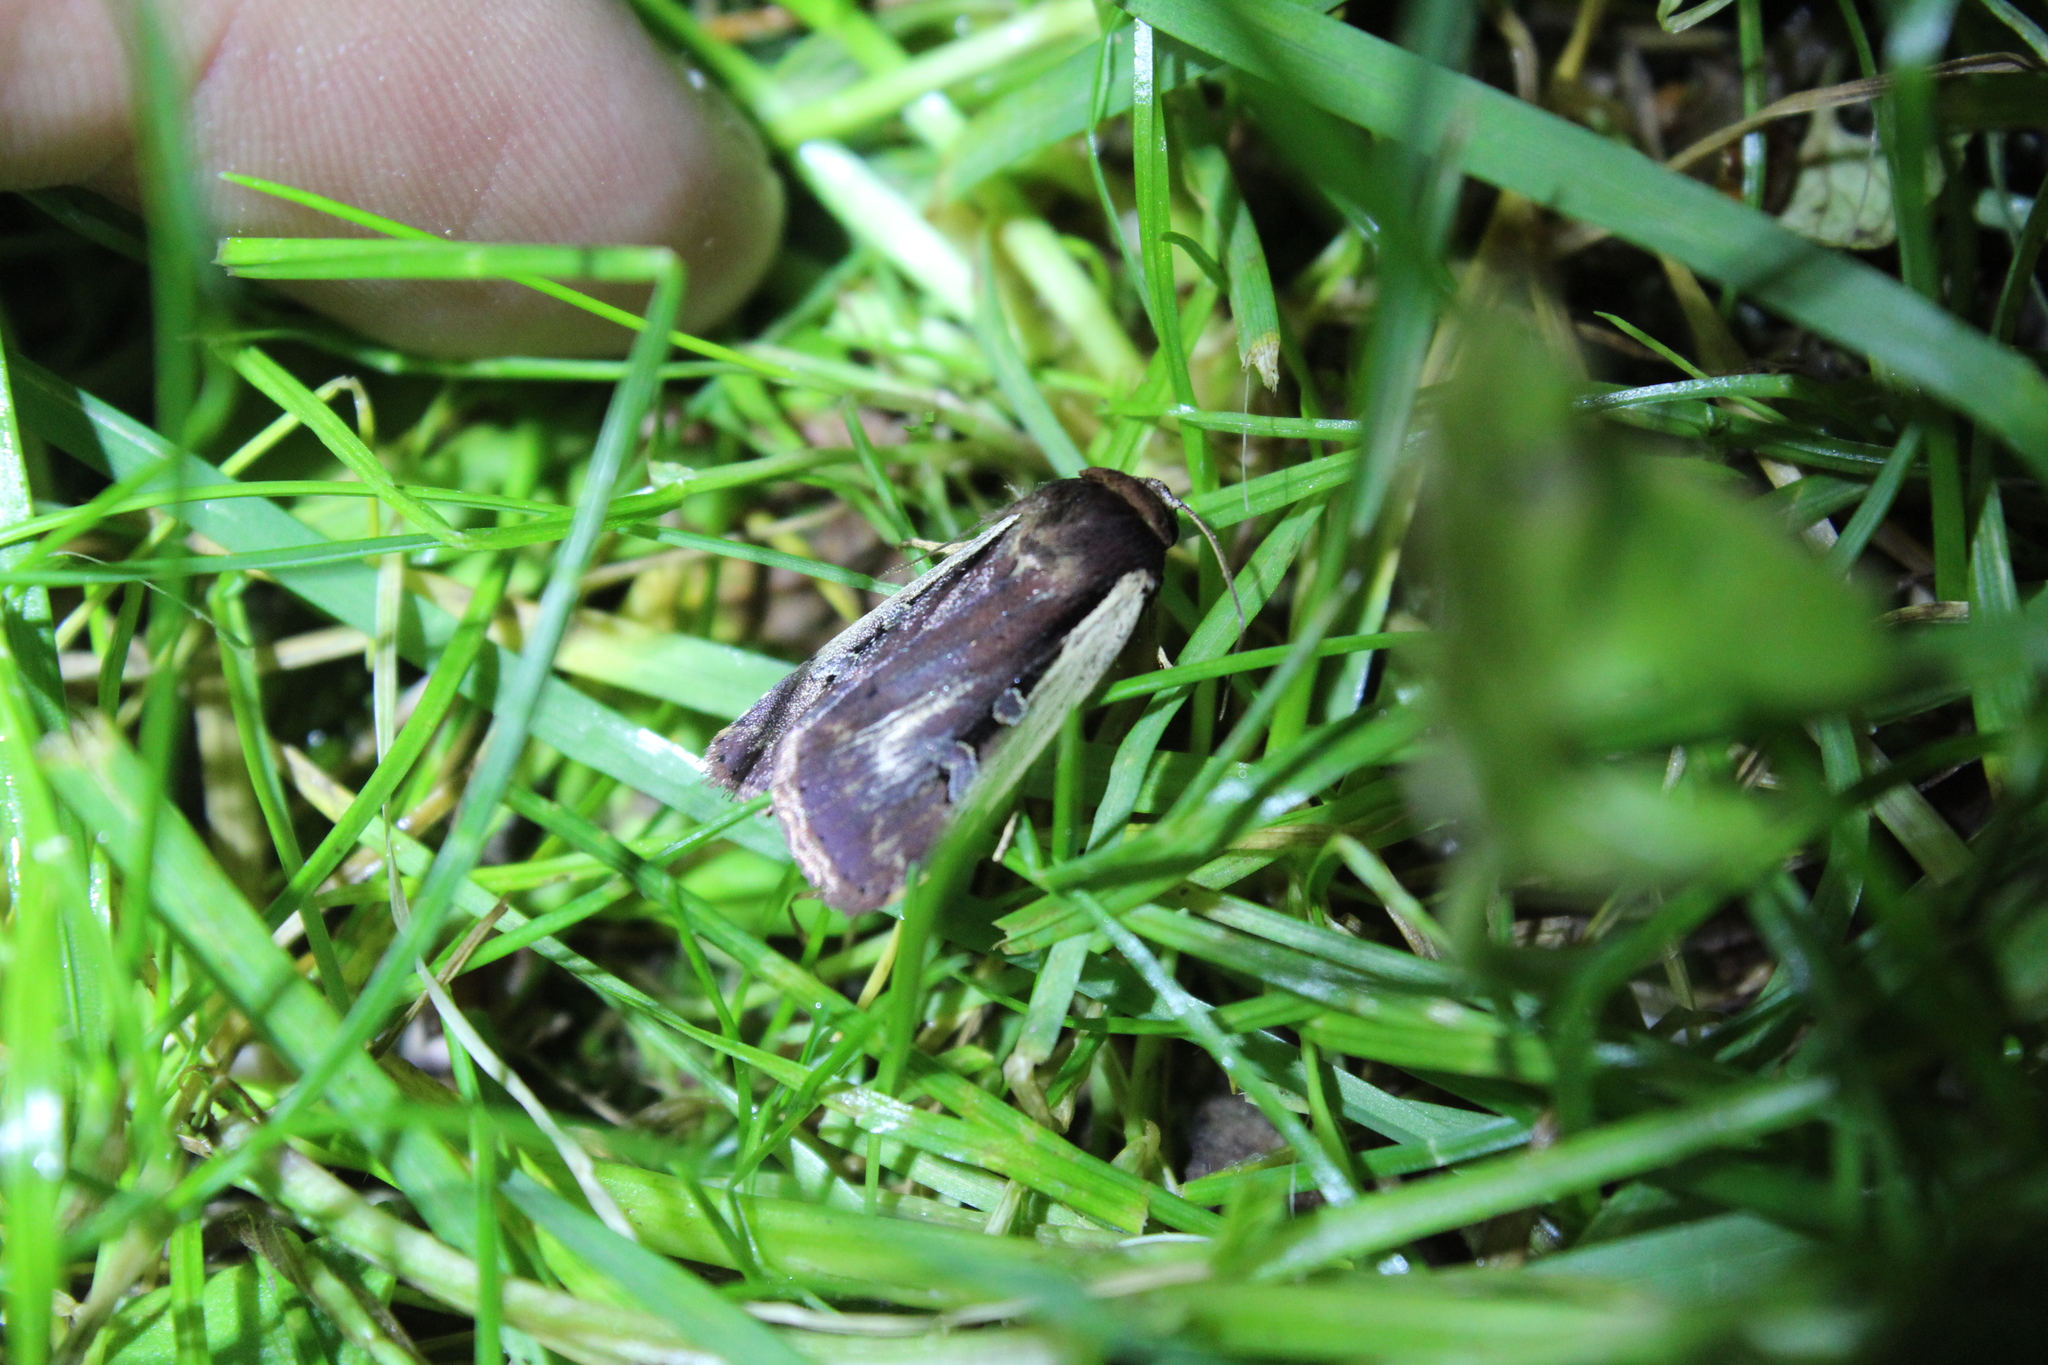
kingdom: Animalia
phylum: Arthropoda
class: Insecta
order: Lepidoptera
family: Noctuidae
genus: Ochropleura
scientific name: Ochropleura implecta
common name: Flame-shouldered dart
